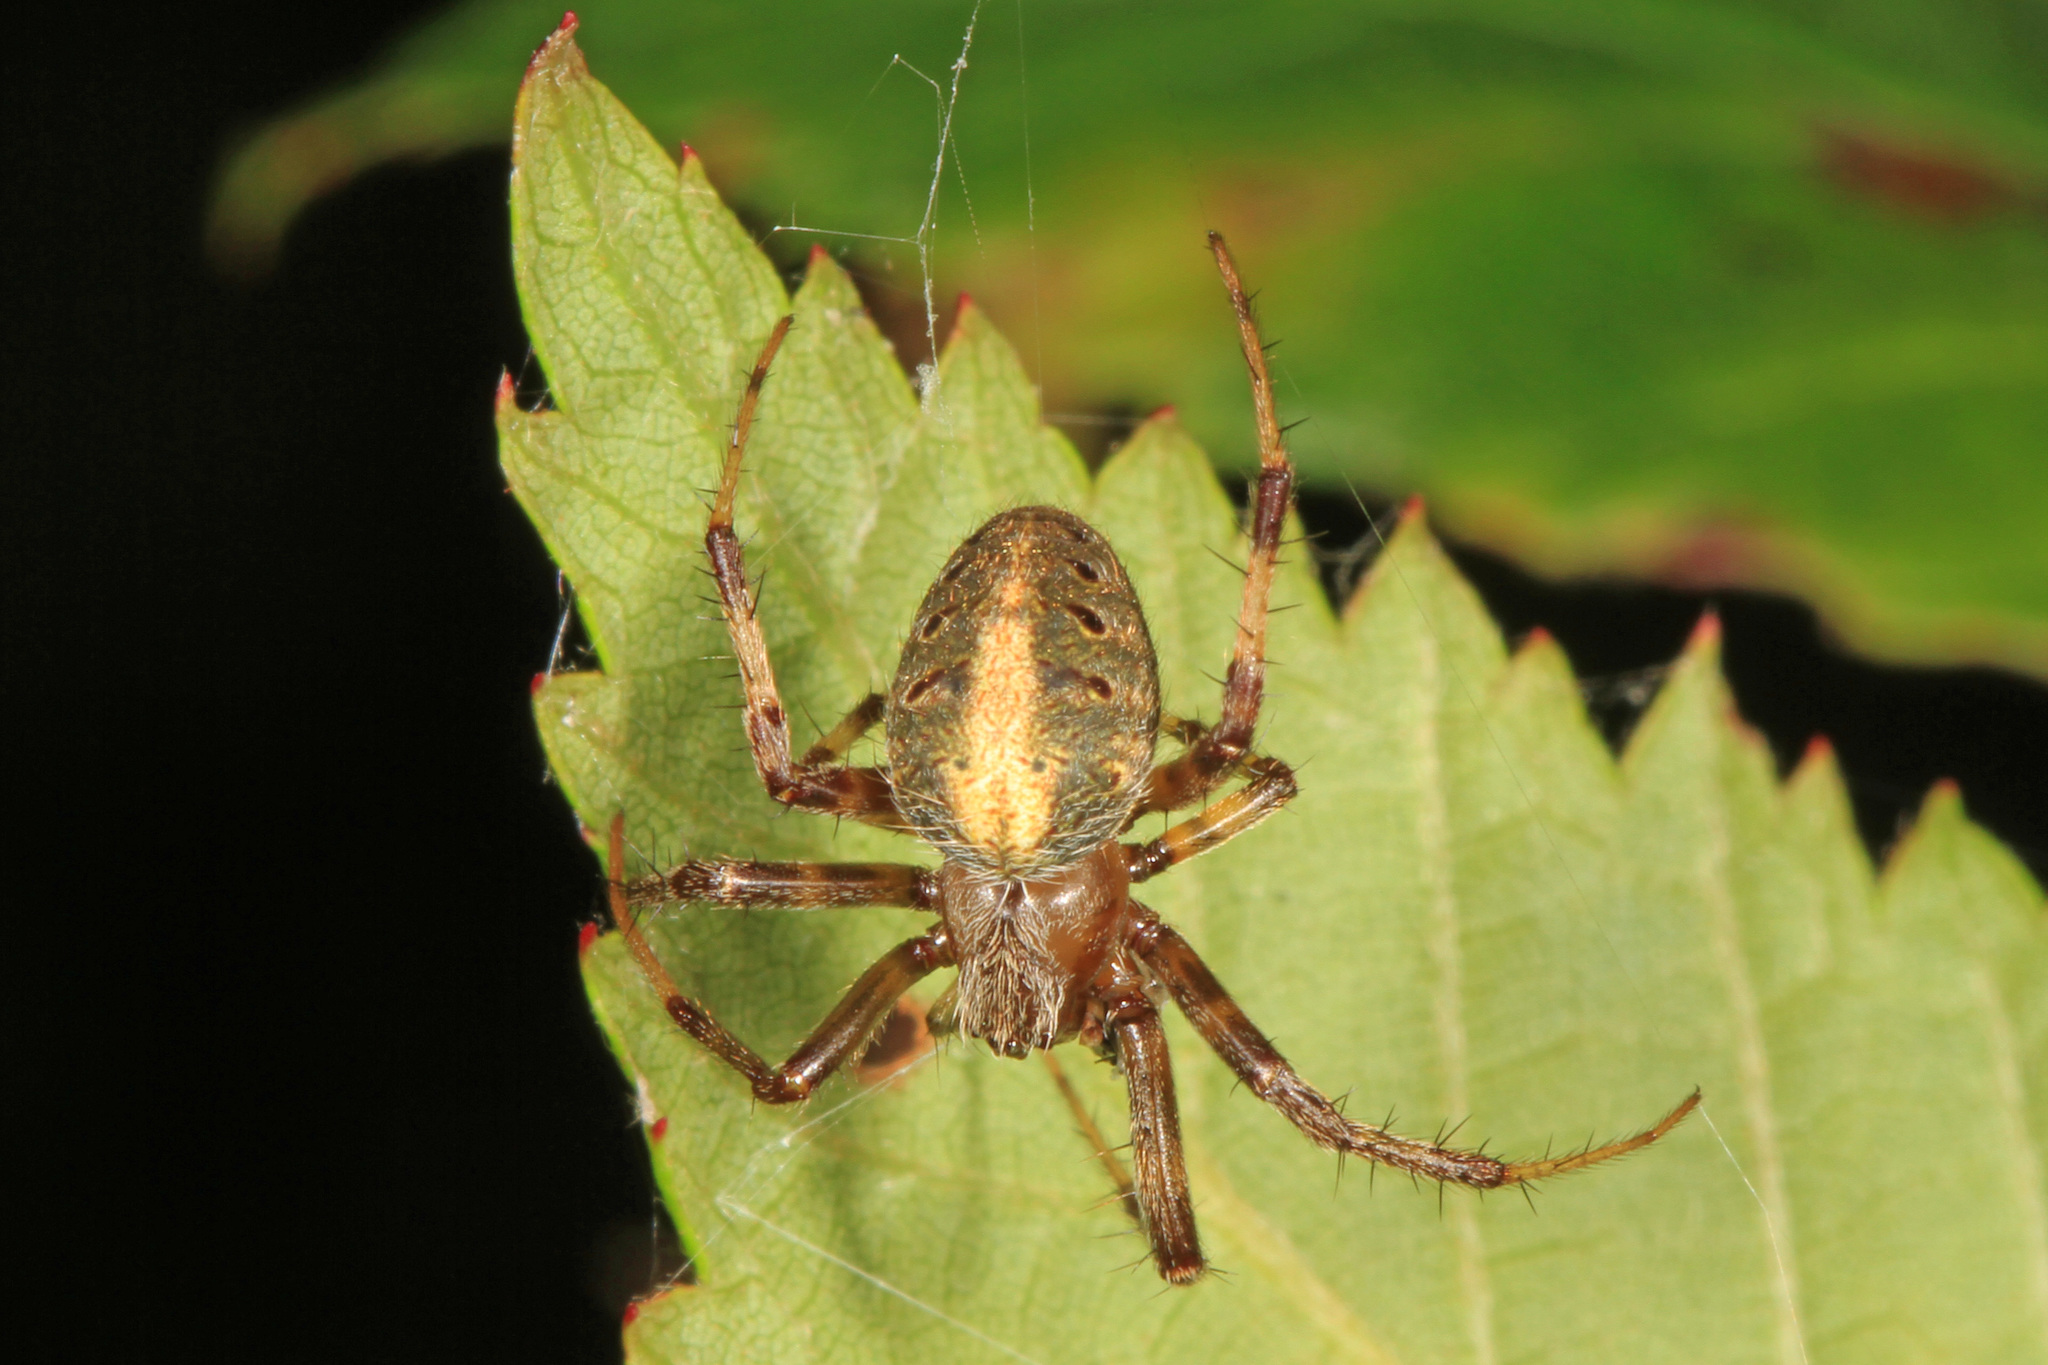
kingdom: Animalia
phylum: Arthropoda
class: Arachnida
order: Araneae
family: Araneidae
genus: Neoscona
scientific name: Neoscona arabesca
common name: Orb weavers
